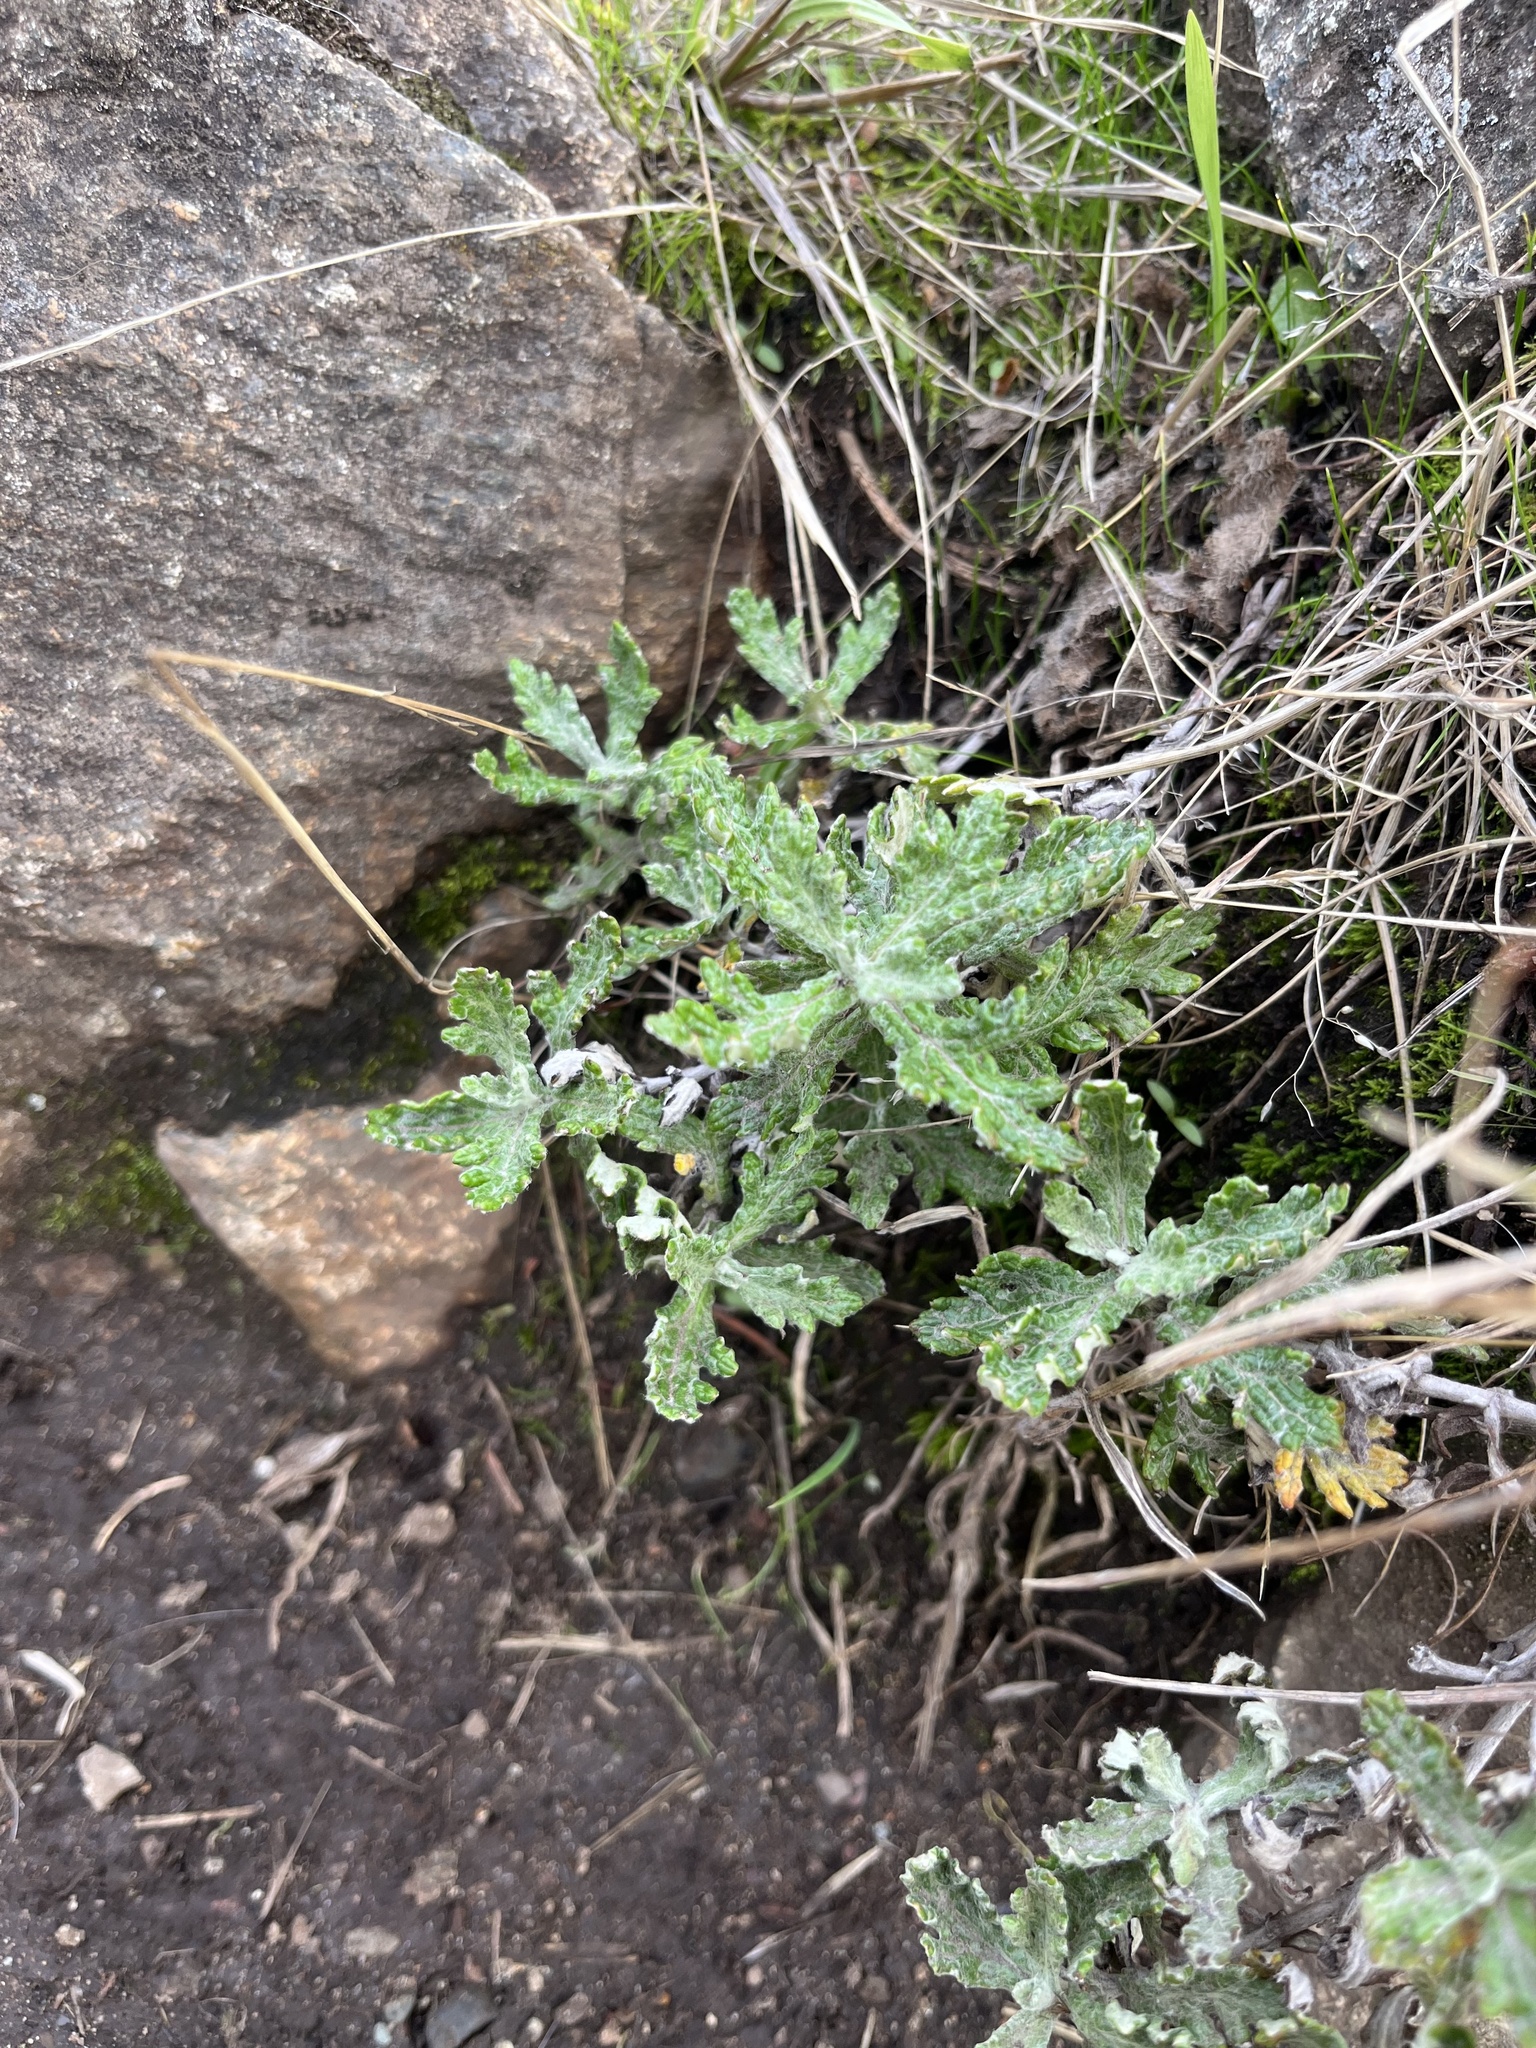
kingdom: Plantae
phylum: Tracheophyta
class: Magnoliopsida
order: Asterales
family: Asteraceae
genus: Eriophyllum
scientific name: Eriophyllum lanatum
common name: Common woolly-sunflower
